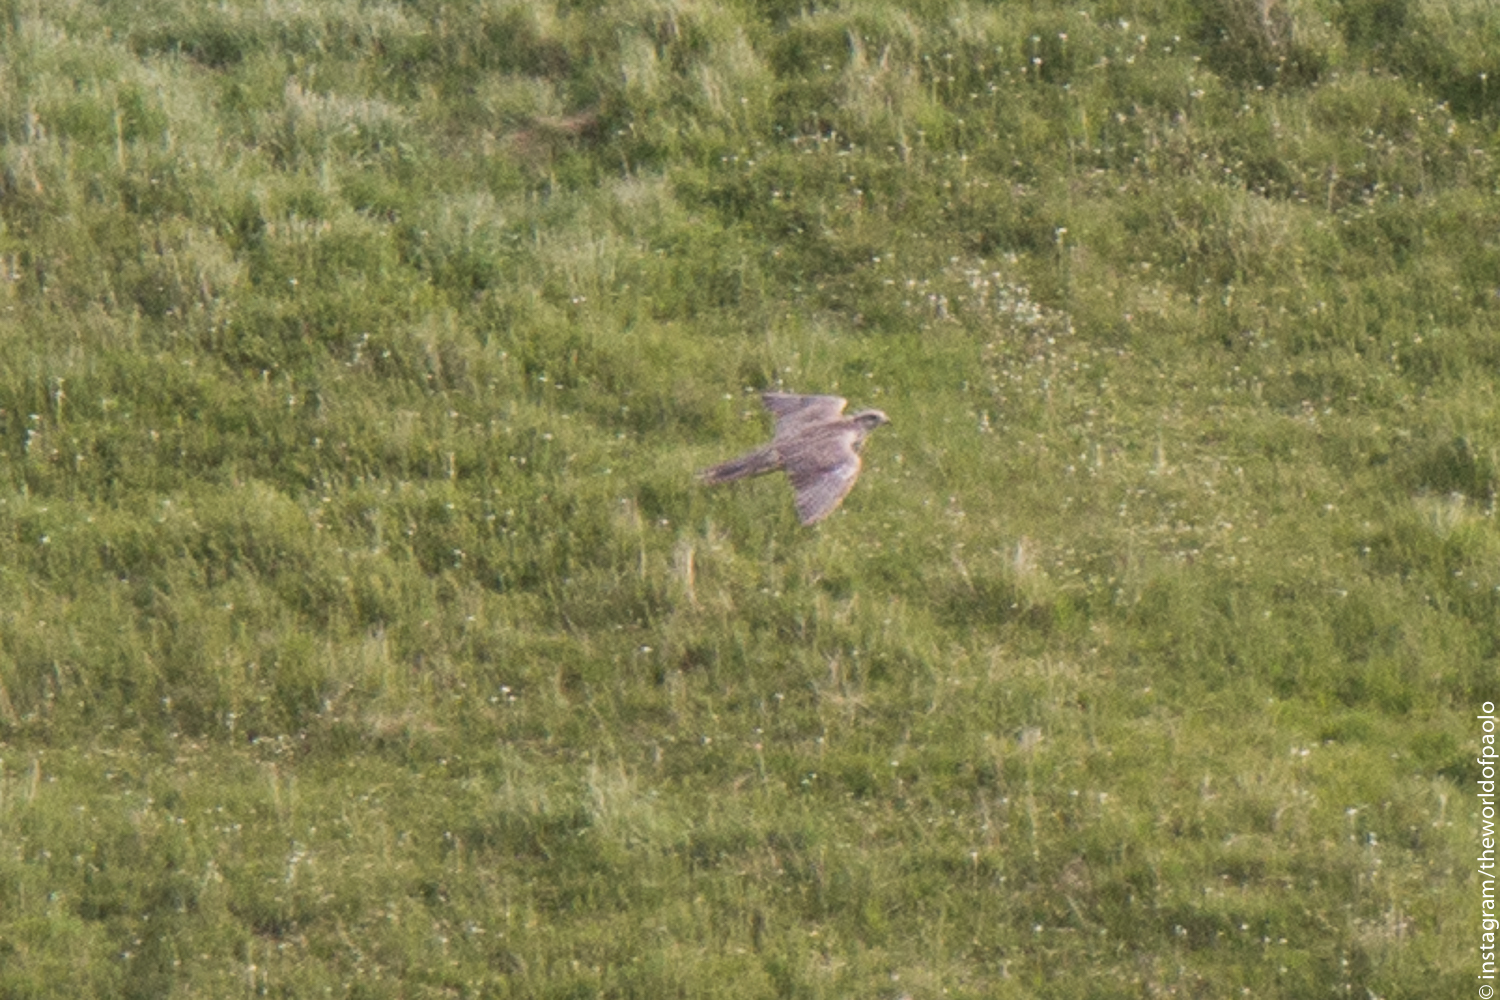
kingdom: Animalia
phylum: Chordata
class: Aves
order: Falconiformes
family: Falconidae
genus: Falco
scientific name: Falco rusticolus
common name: Gyrfalcon
